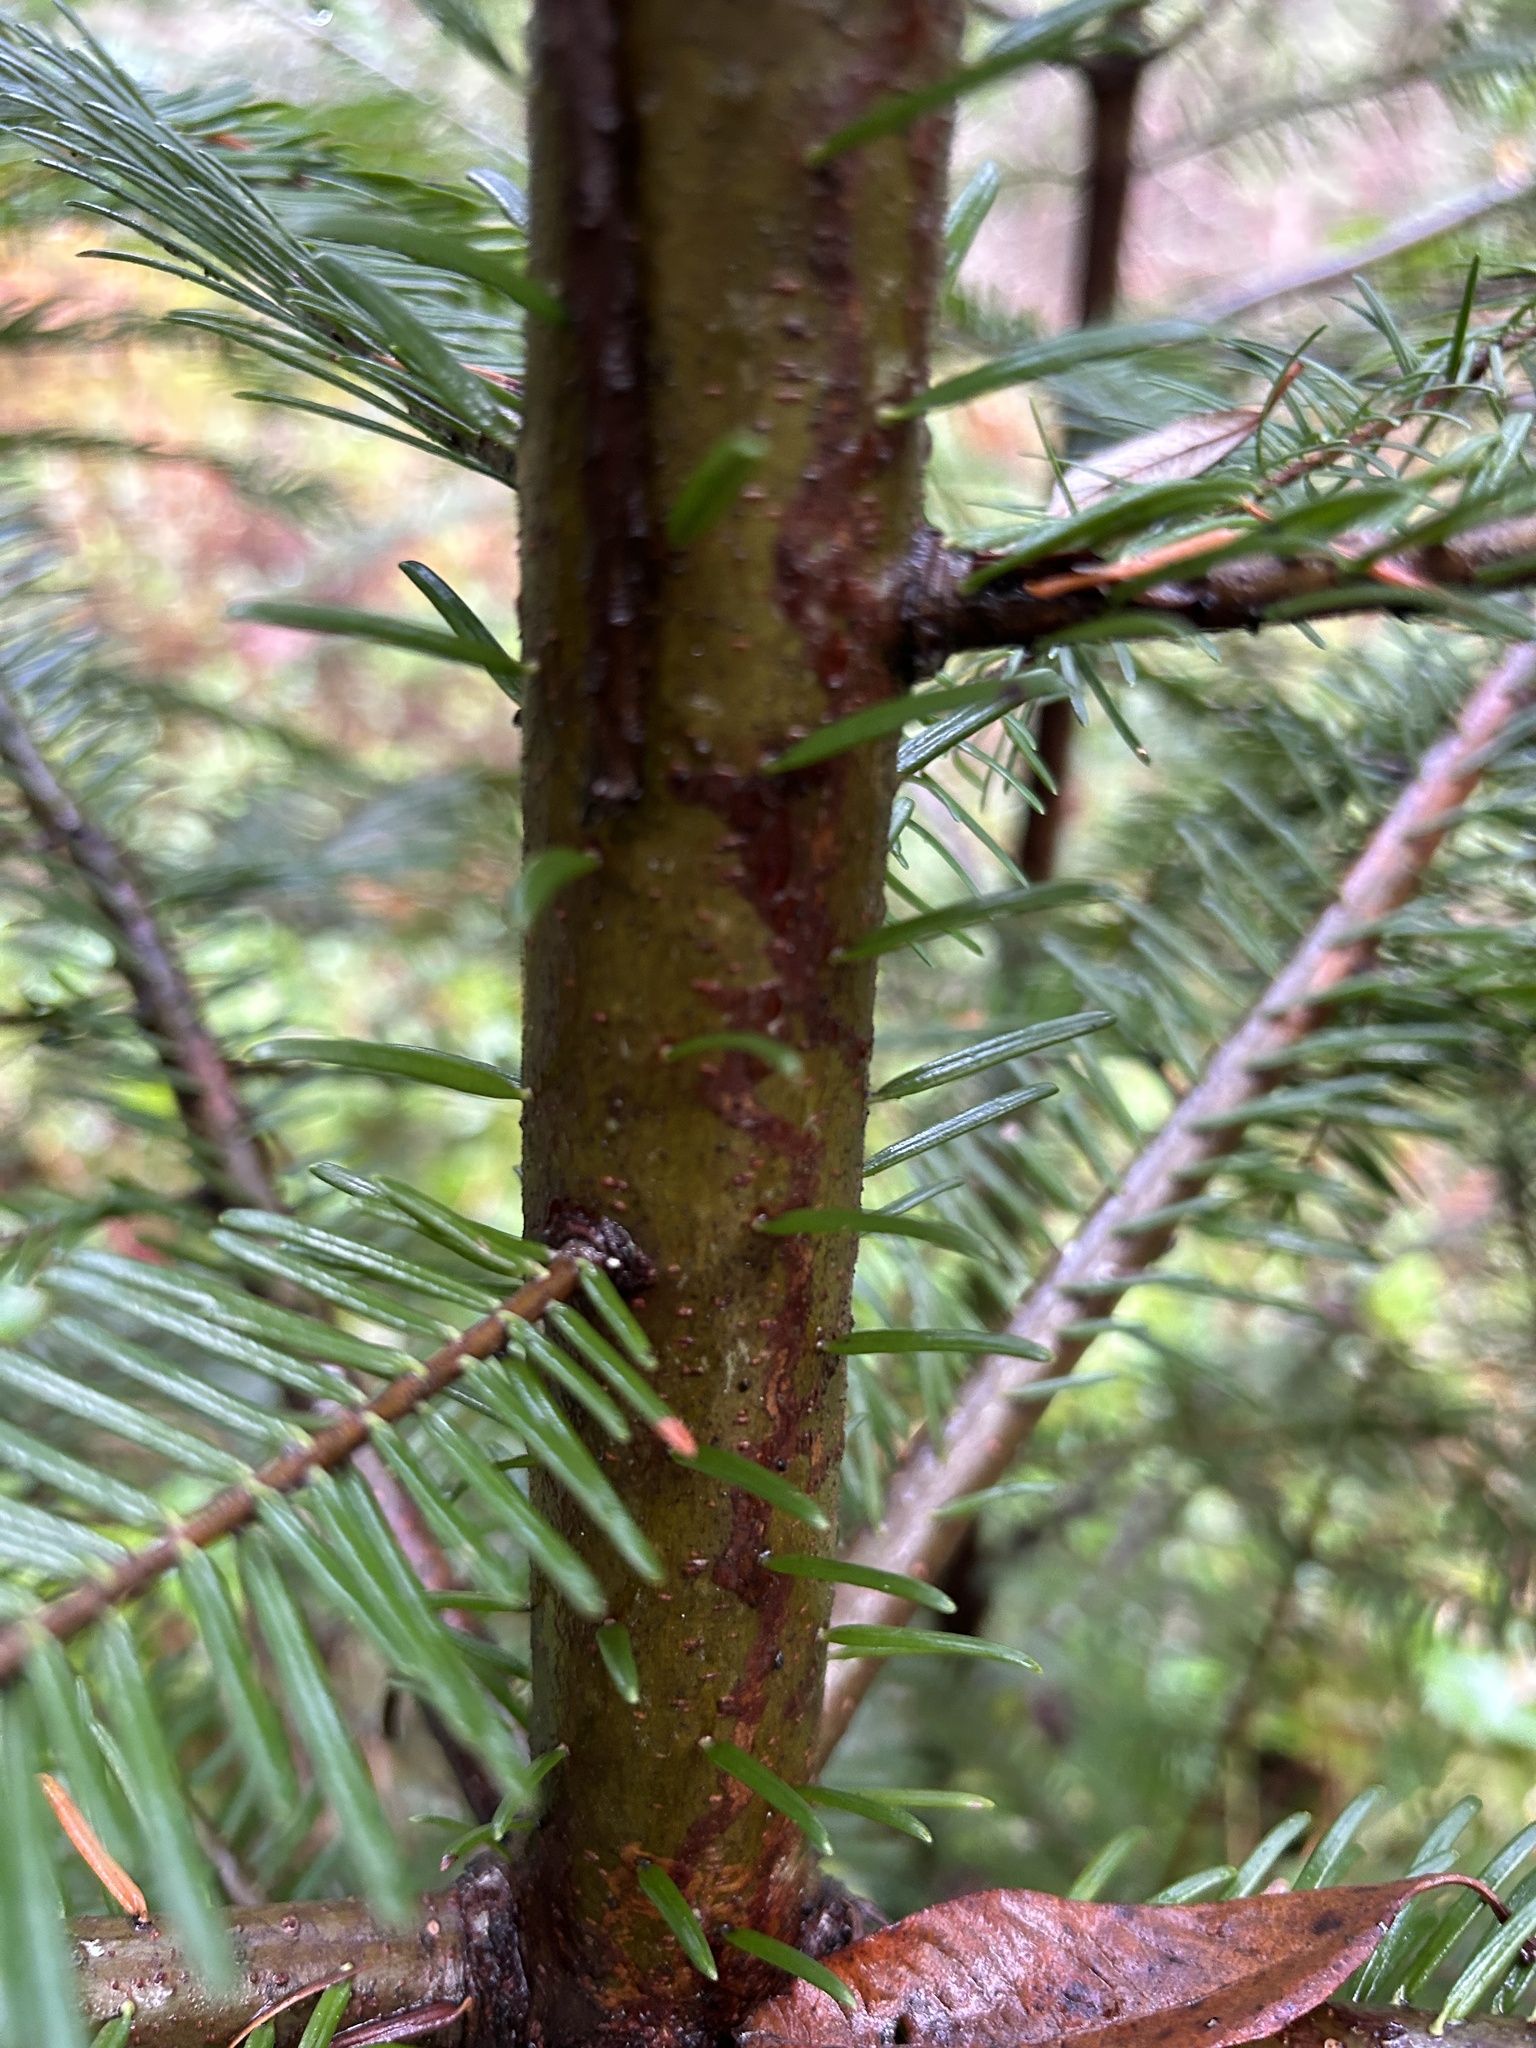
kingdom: Animalia
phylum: Arthropoda
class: Insecta
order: Lepidoptera
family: Gracillariidae
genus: Marmara
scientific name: Marmara oregonensis
